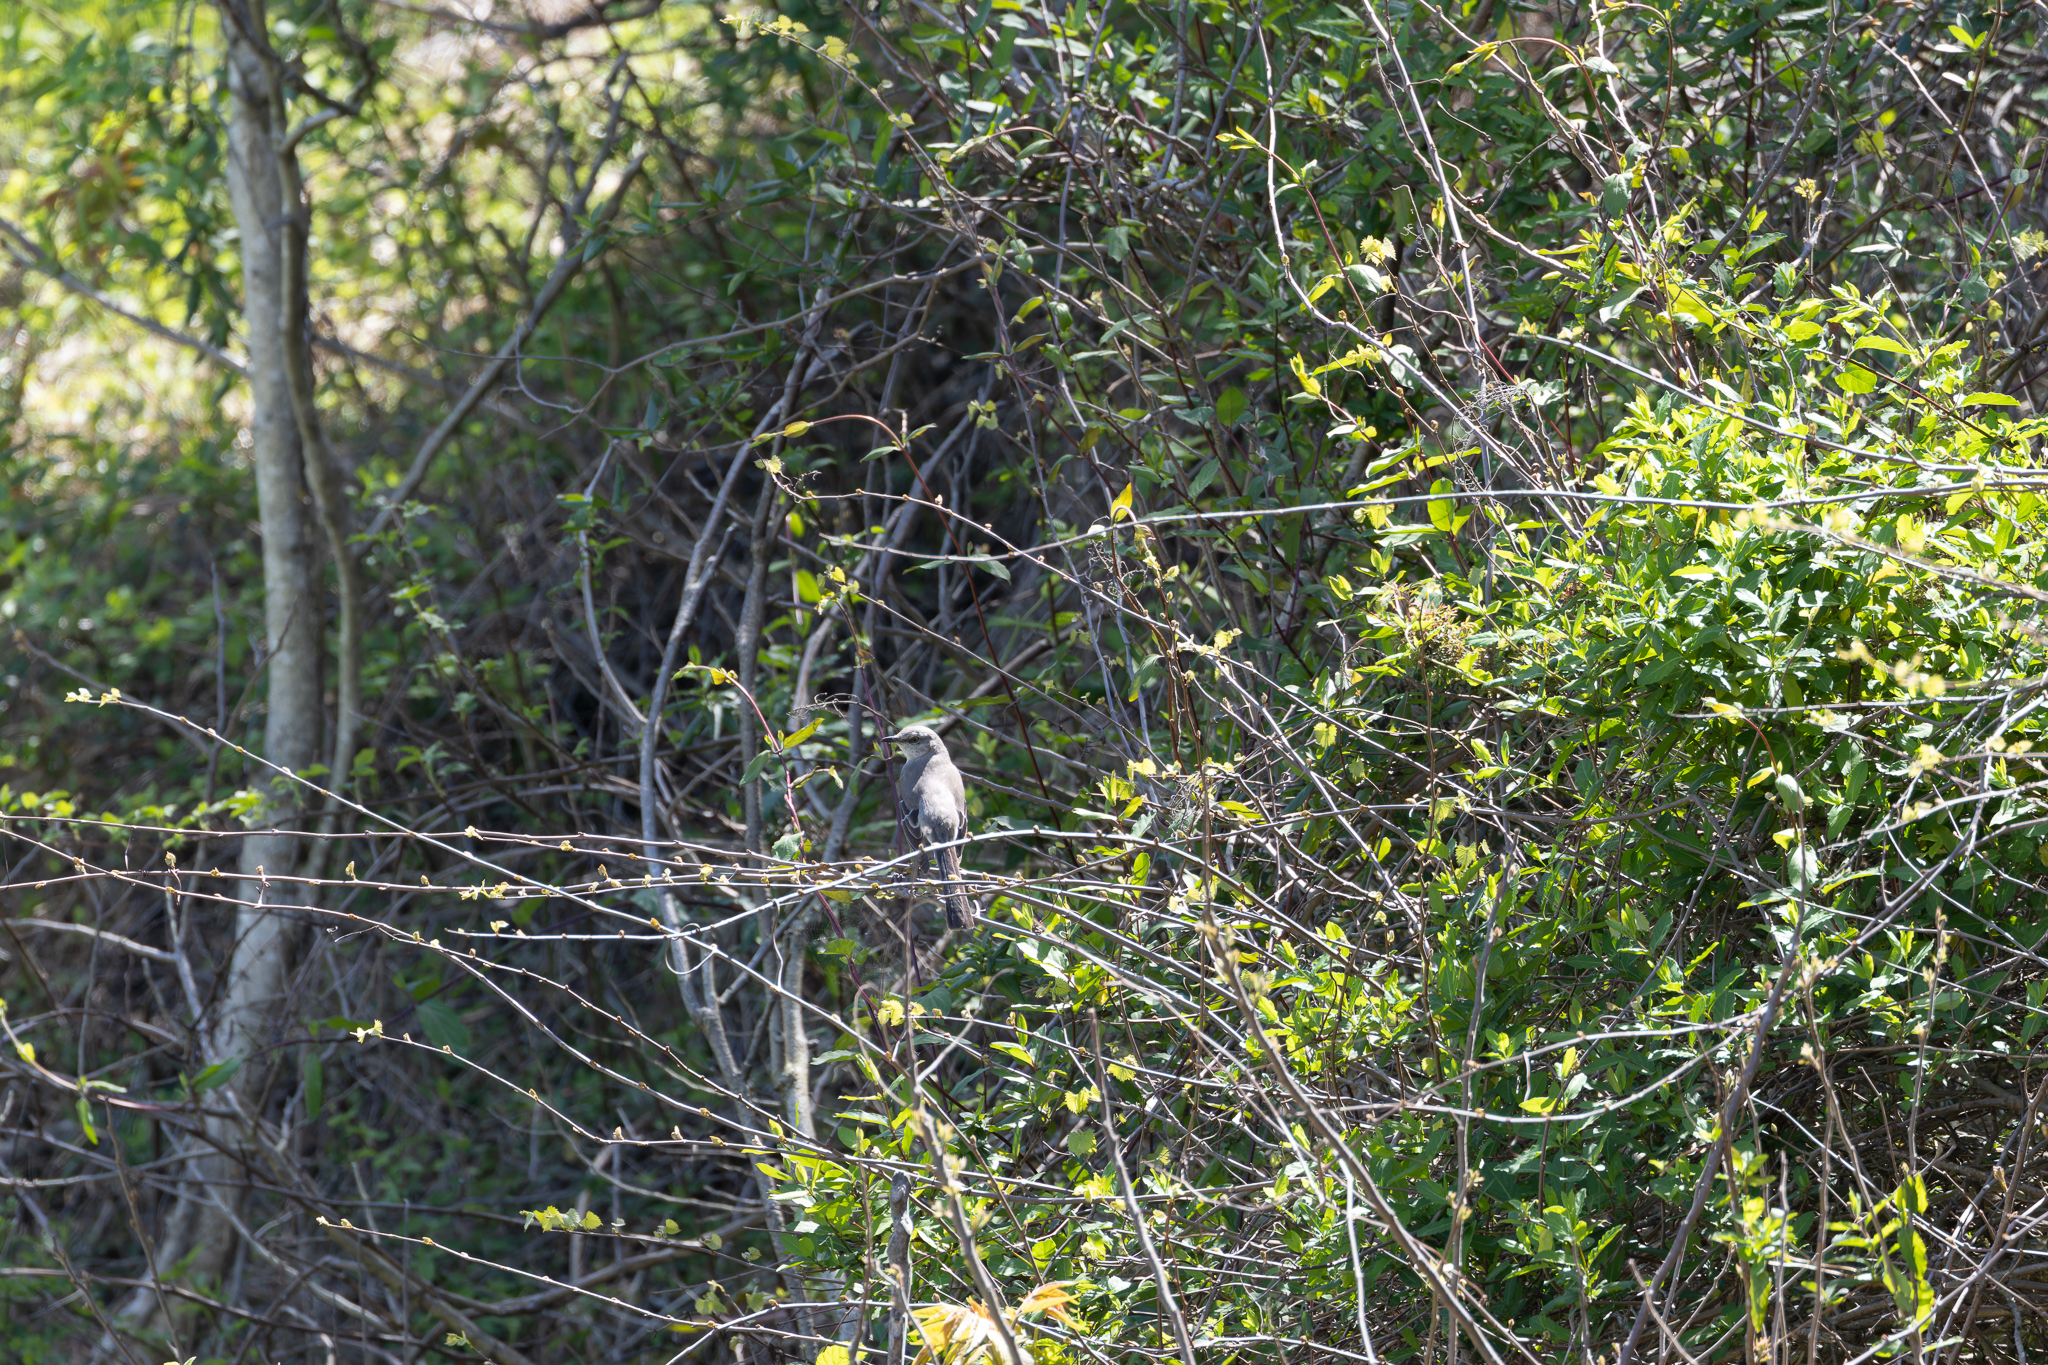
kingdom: Animalia
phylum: Chordata
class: Aves
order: Passeriformes
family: Mimidae
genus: Mimus
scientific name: Mimus polyglottos
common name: Northern mockingbird
